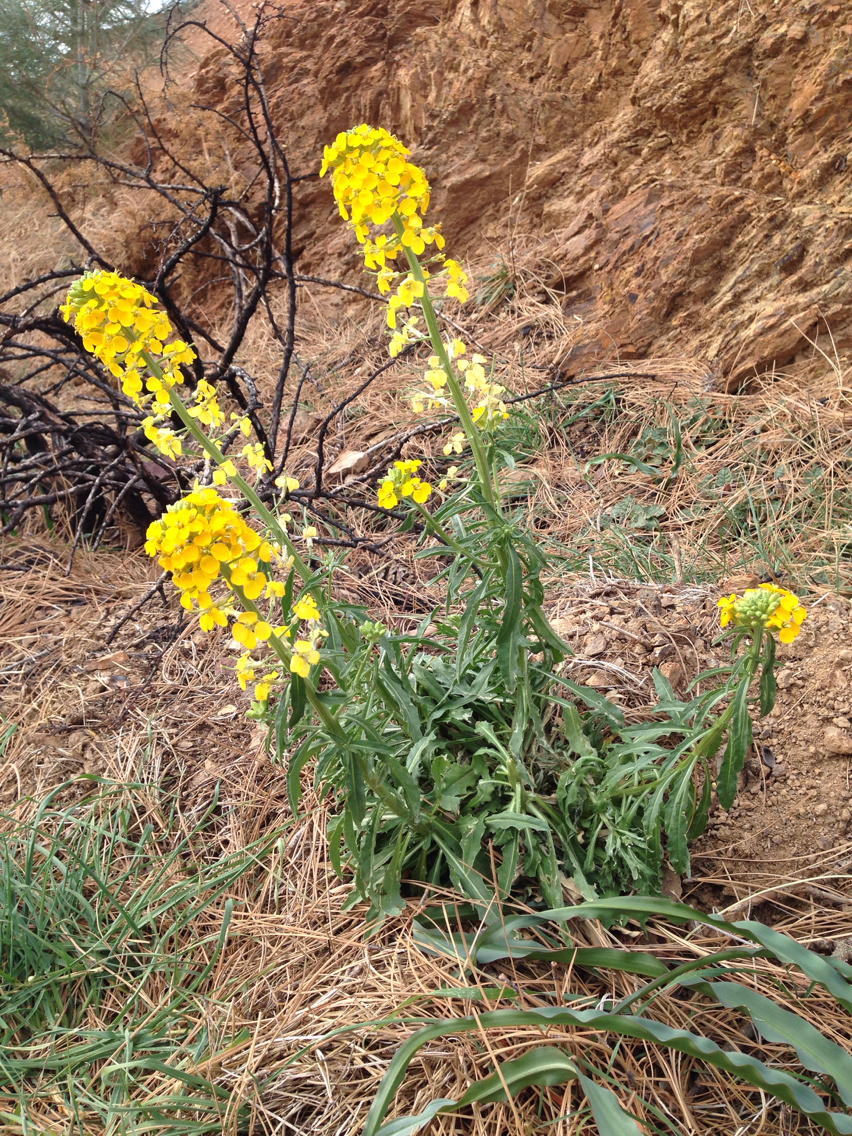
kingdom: Plantae
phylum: Tracheophyta
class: Magnoliopsida
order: Brassicales
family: Brassicaceae
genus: Erysimum
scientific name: Erysimum capitatum
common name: Western wallflower
